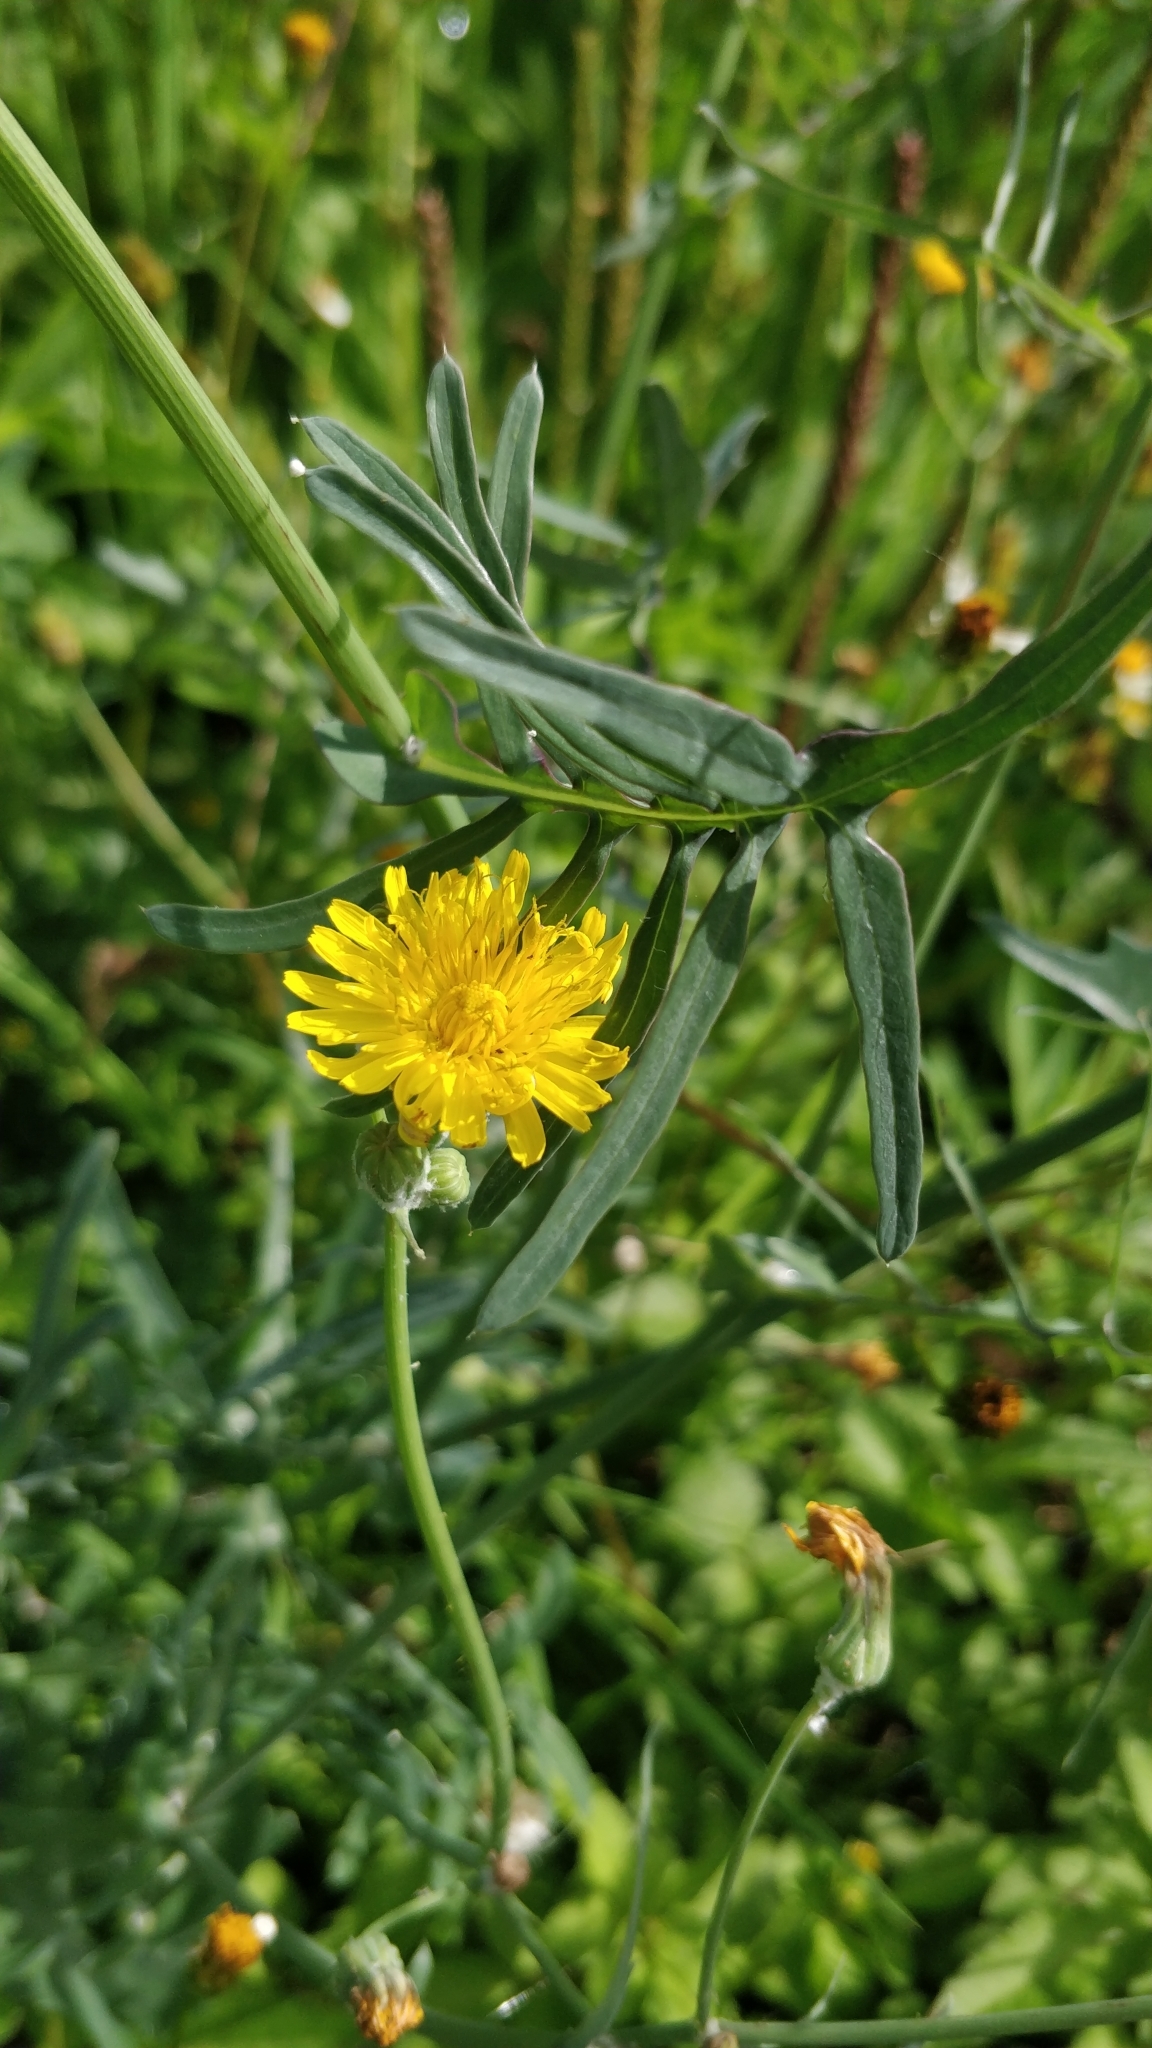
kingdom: Plantae
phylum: Tracheophyta
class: Magnoliopsida
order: Asterales
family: Asteraceae
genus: Sonchus
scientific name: Sonchus tenerrimus
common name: Clammy sowthistle
